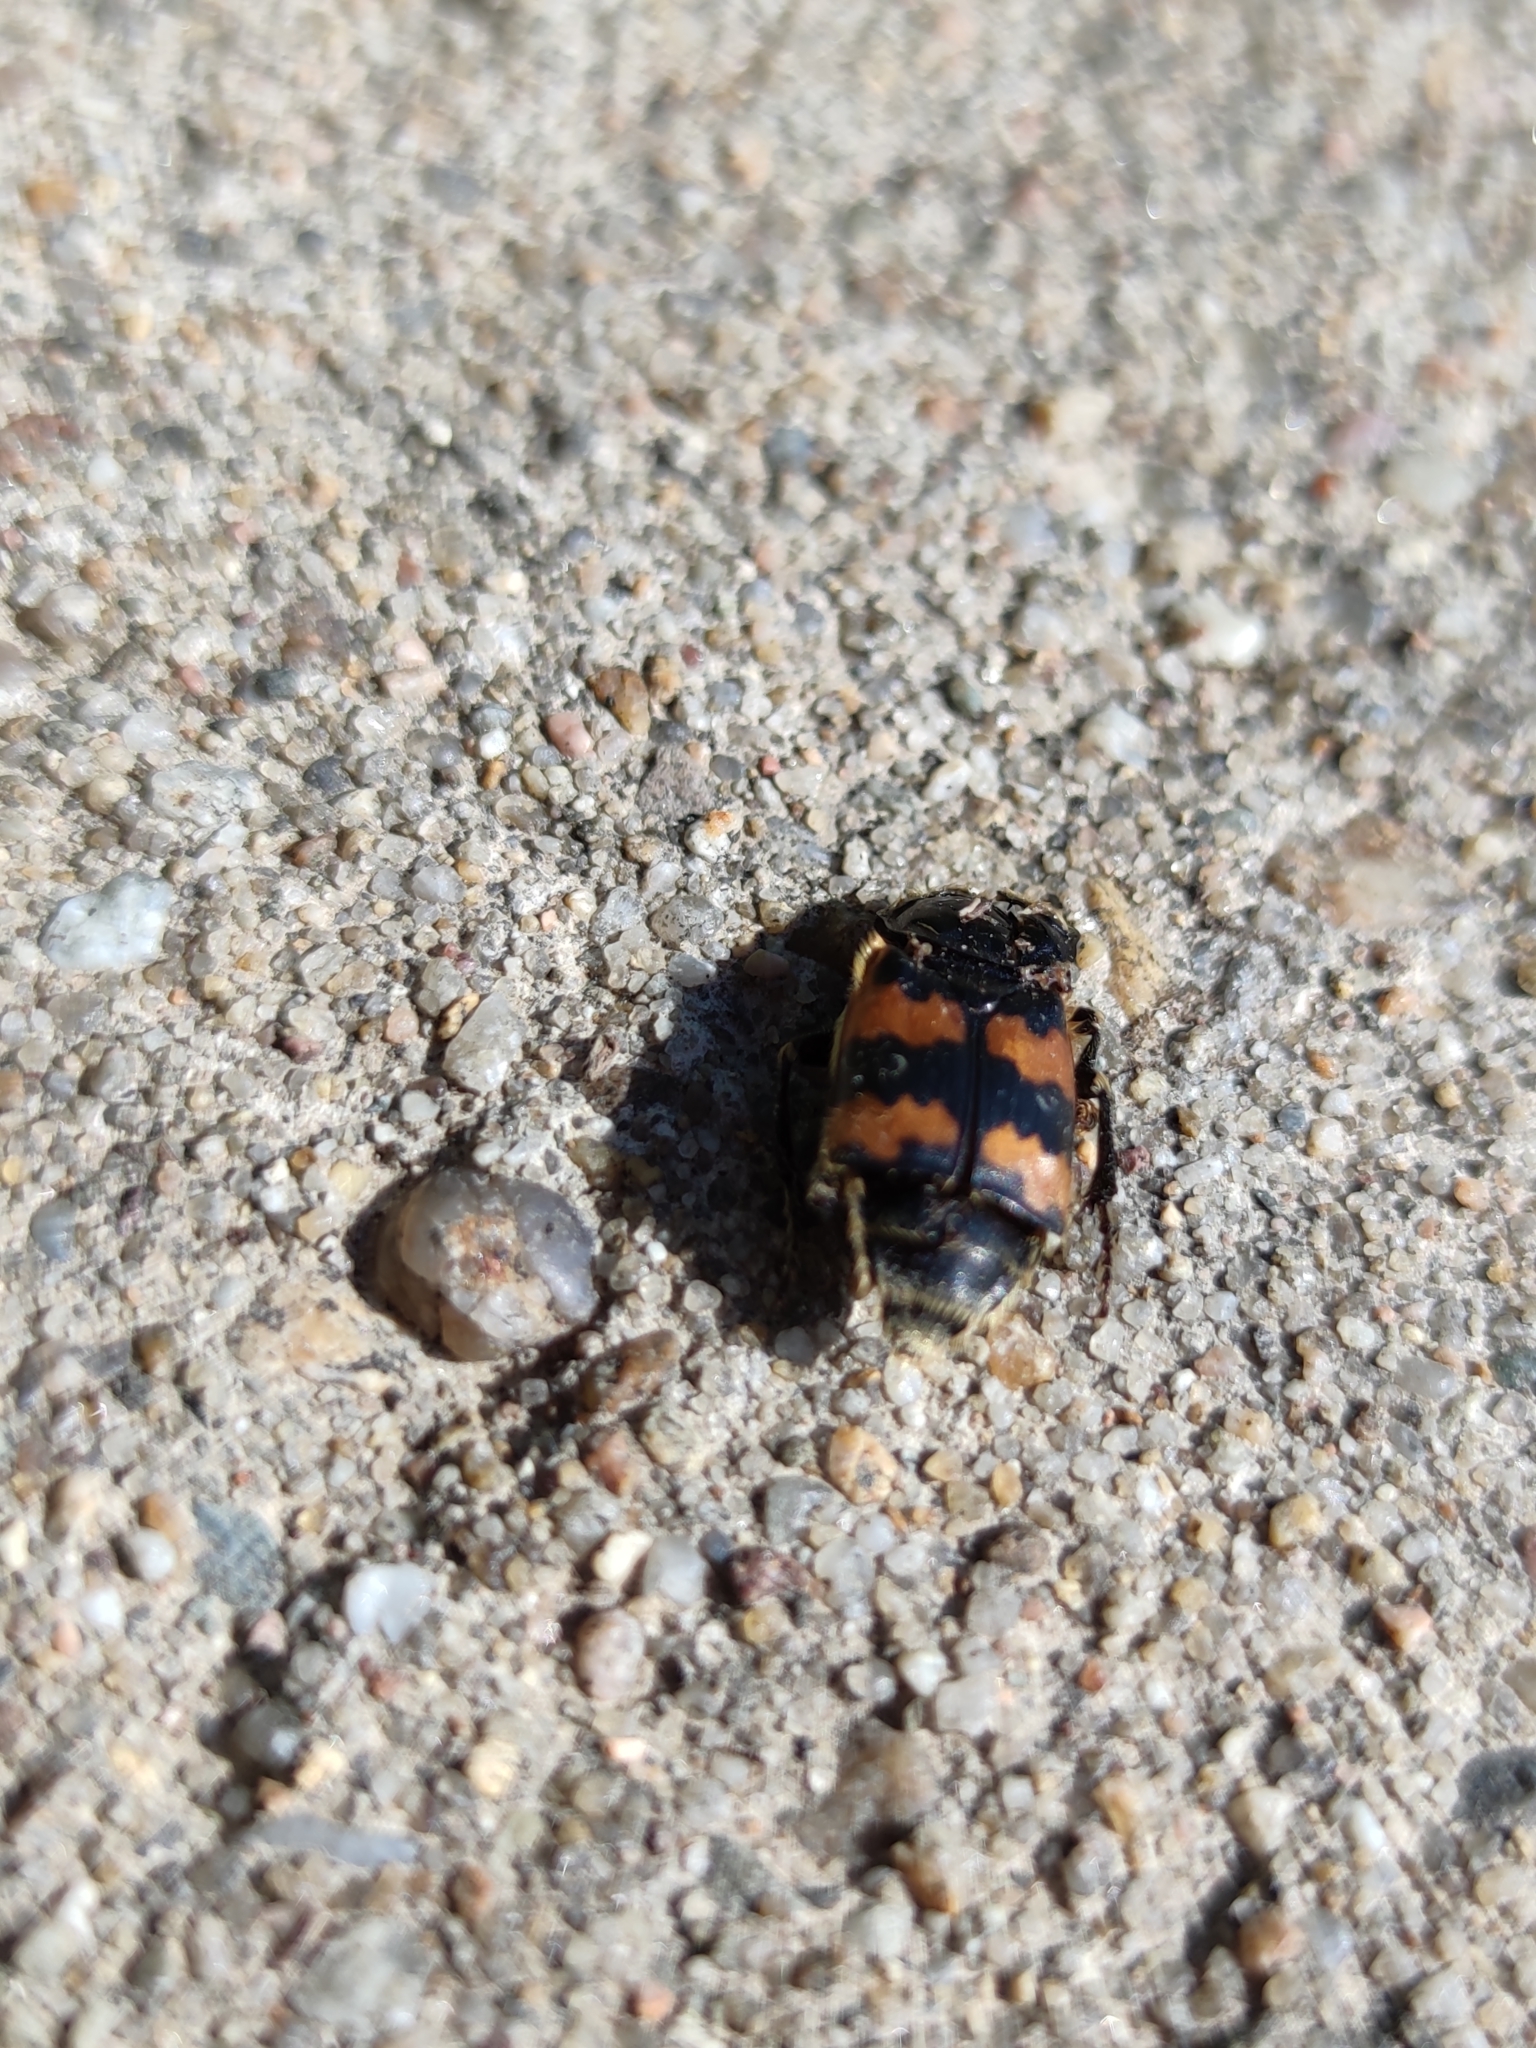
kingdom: Animalia
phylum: Arthropoda
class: Insecta
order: Coleoptera
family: Staphylinidae
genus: Nicrophorus
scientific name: Nicrophorus vespillo
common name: Common burying beetle
